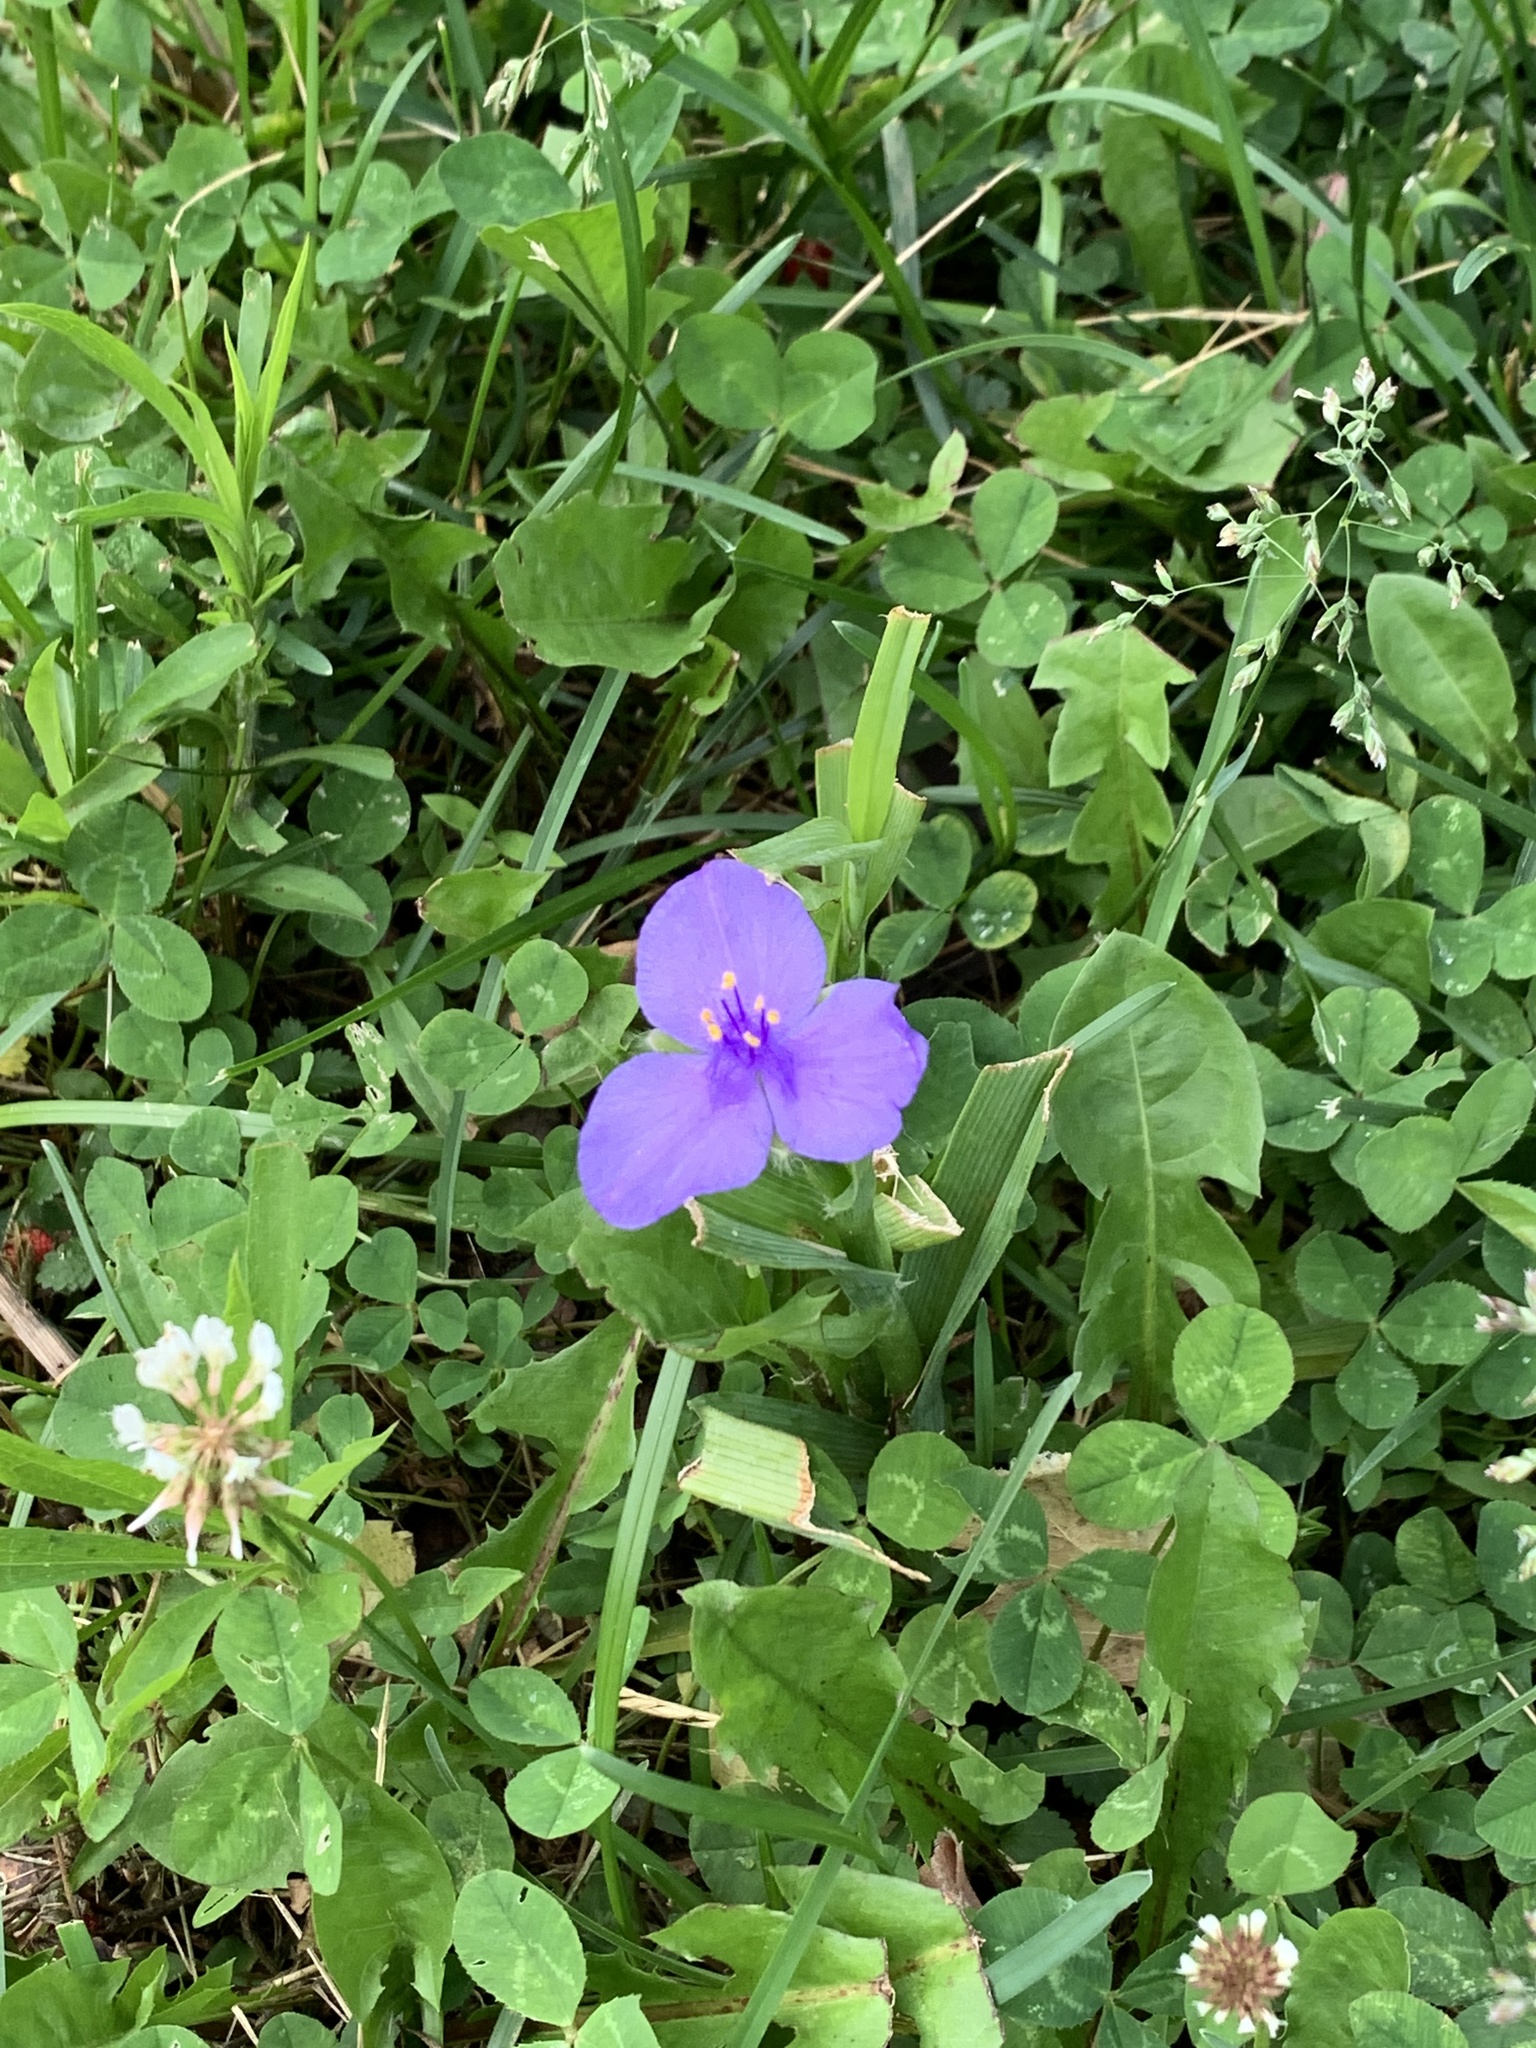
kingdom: Plantae
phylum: Tracheophyta
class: Liliopsida
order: Commelinales
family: Commelinaceae
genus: Tradescantia
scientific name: Tradescantia virginiana
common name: Spiderwort
